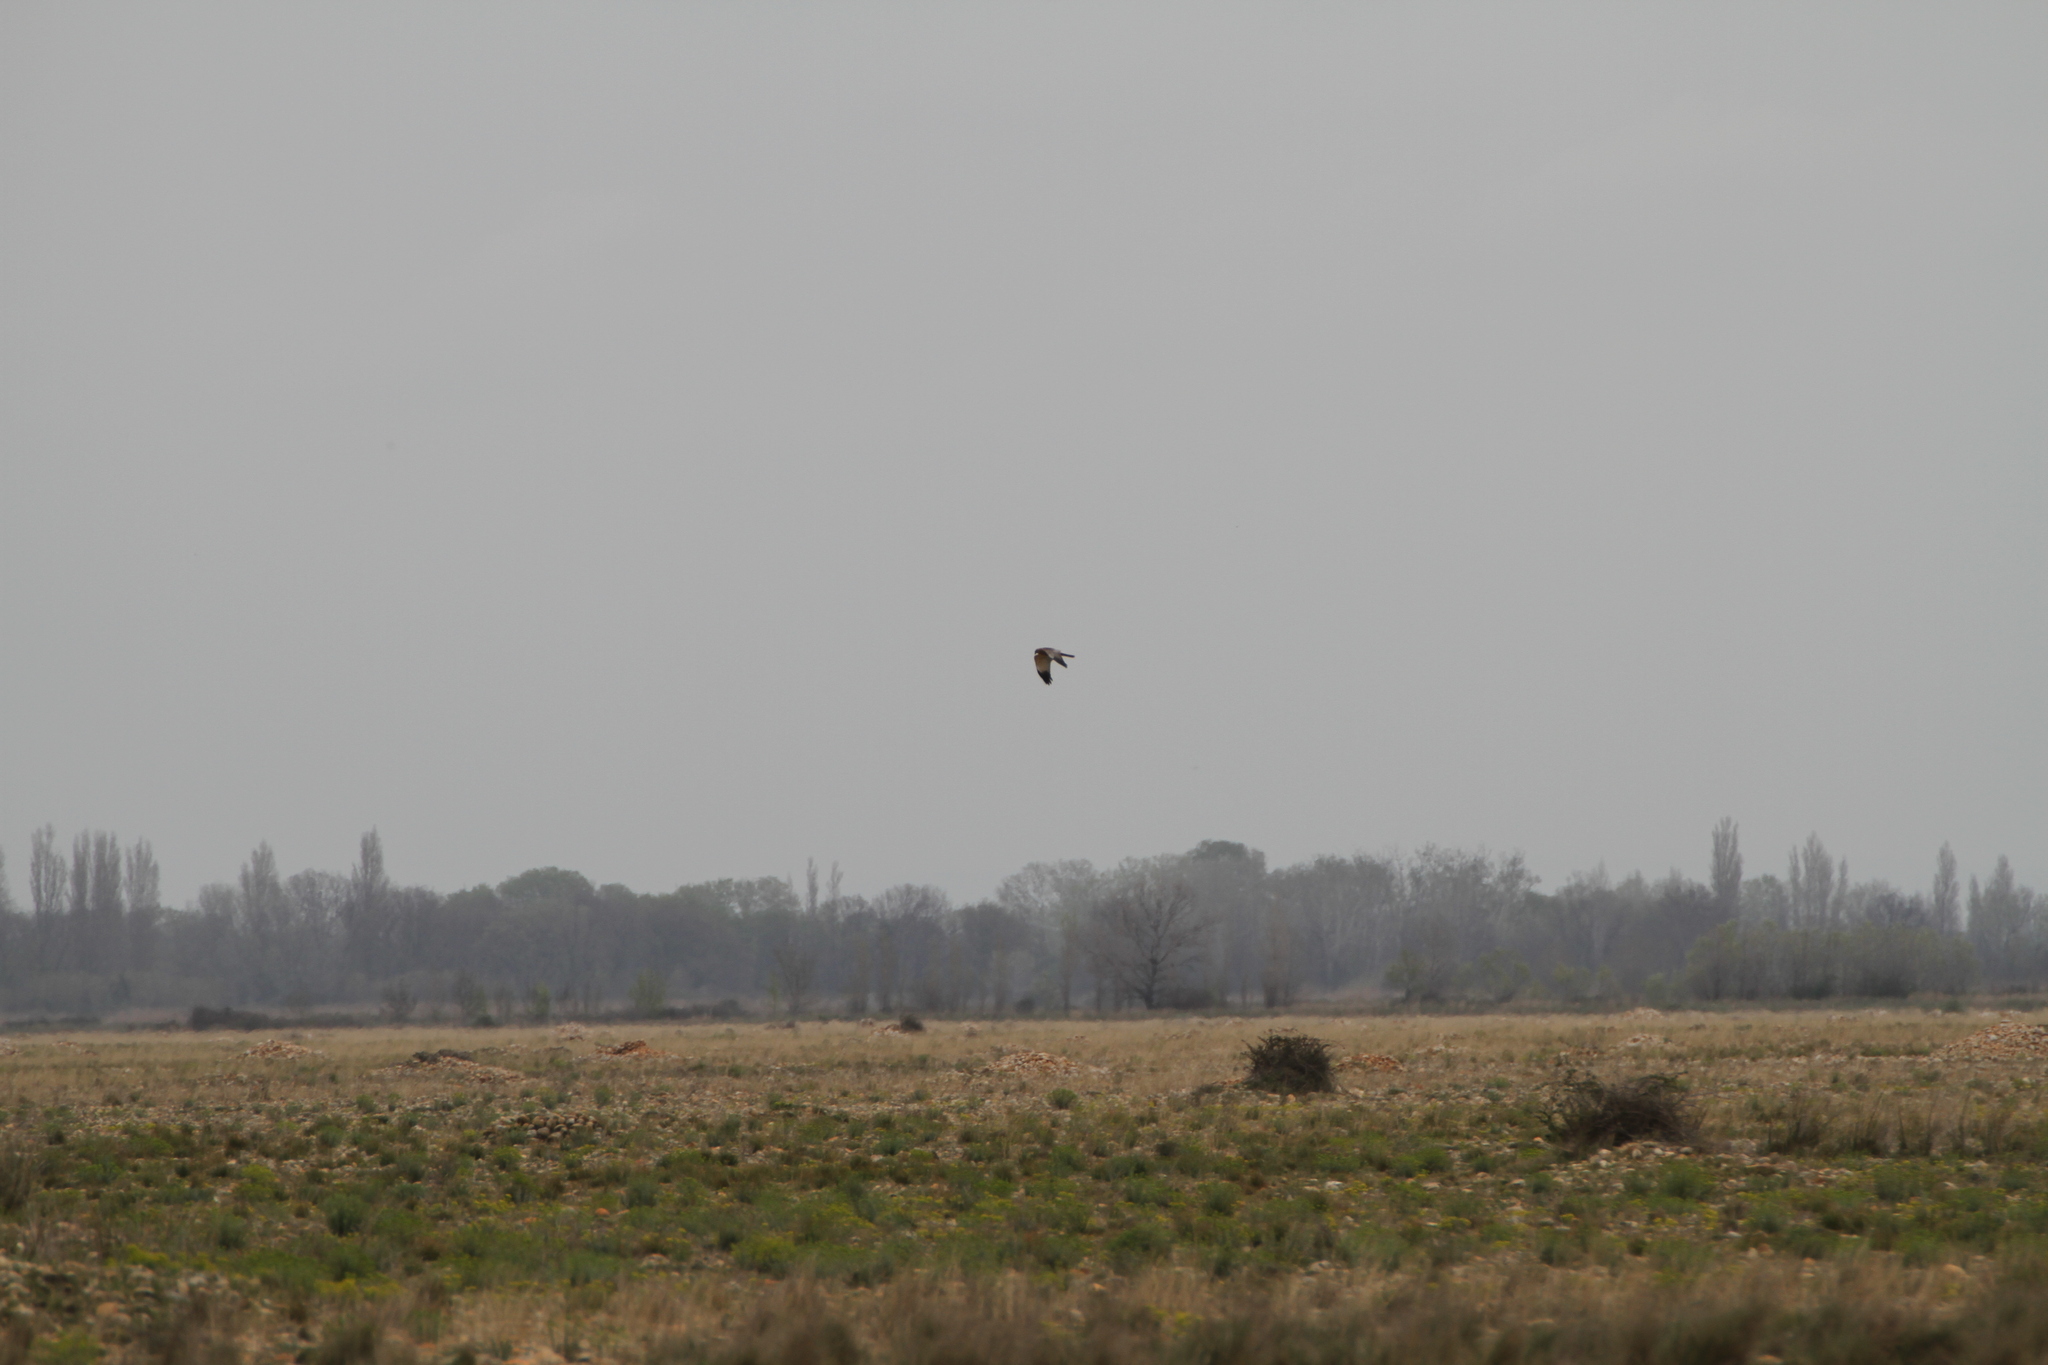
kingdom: Animalia
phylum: Chordata
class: Aves
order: Accipitriformes
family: Accipitridae
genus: Circus
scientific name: Circus aeruginosus
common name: Western marsh harrier
